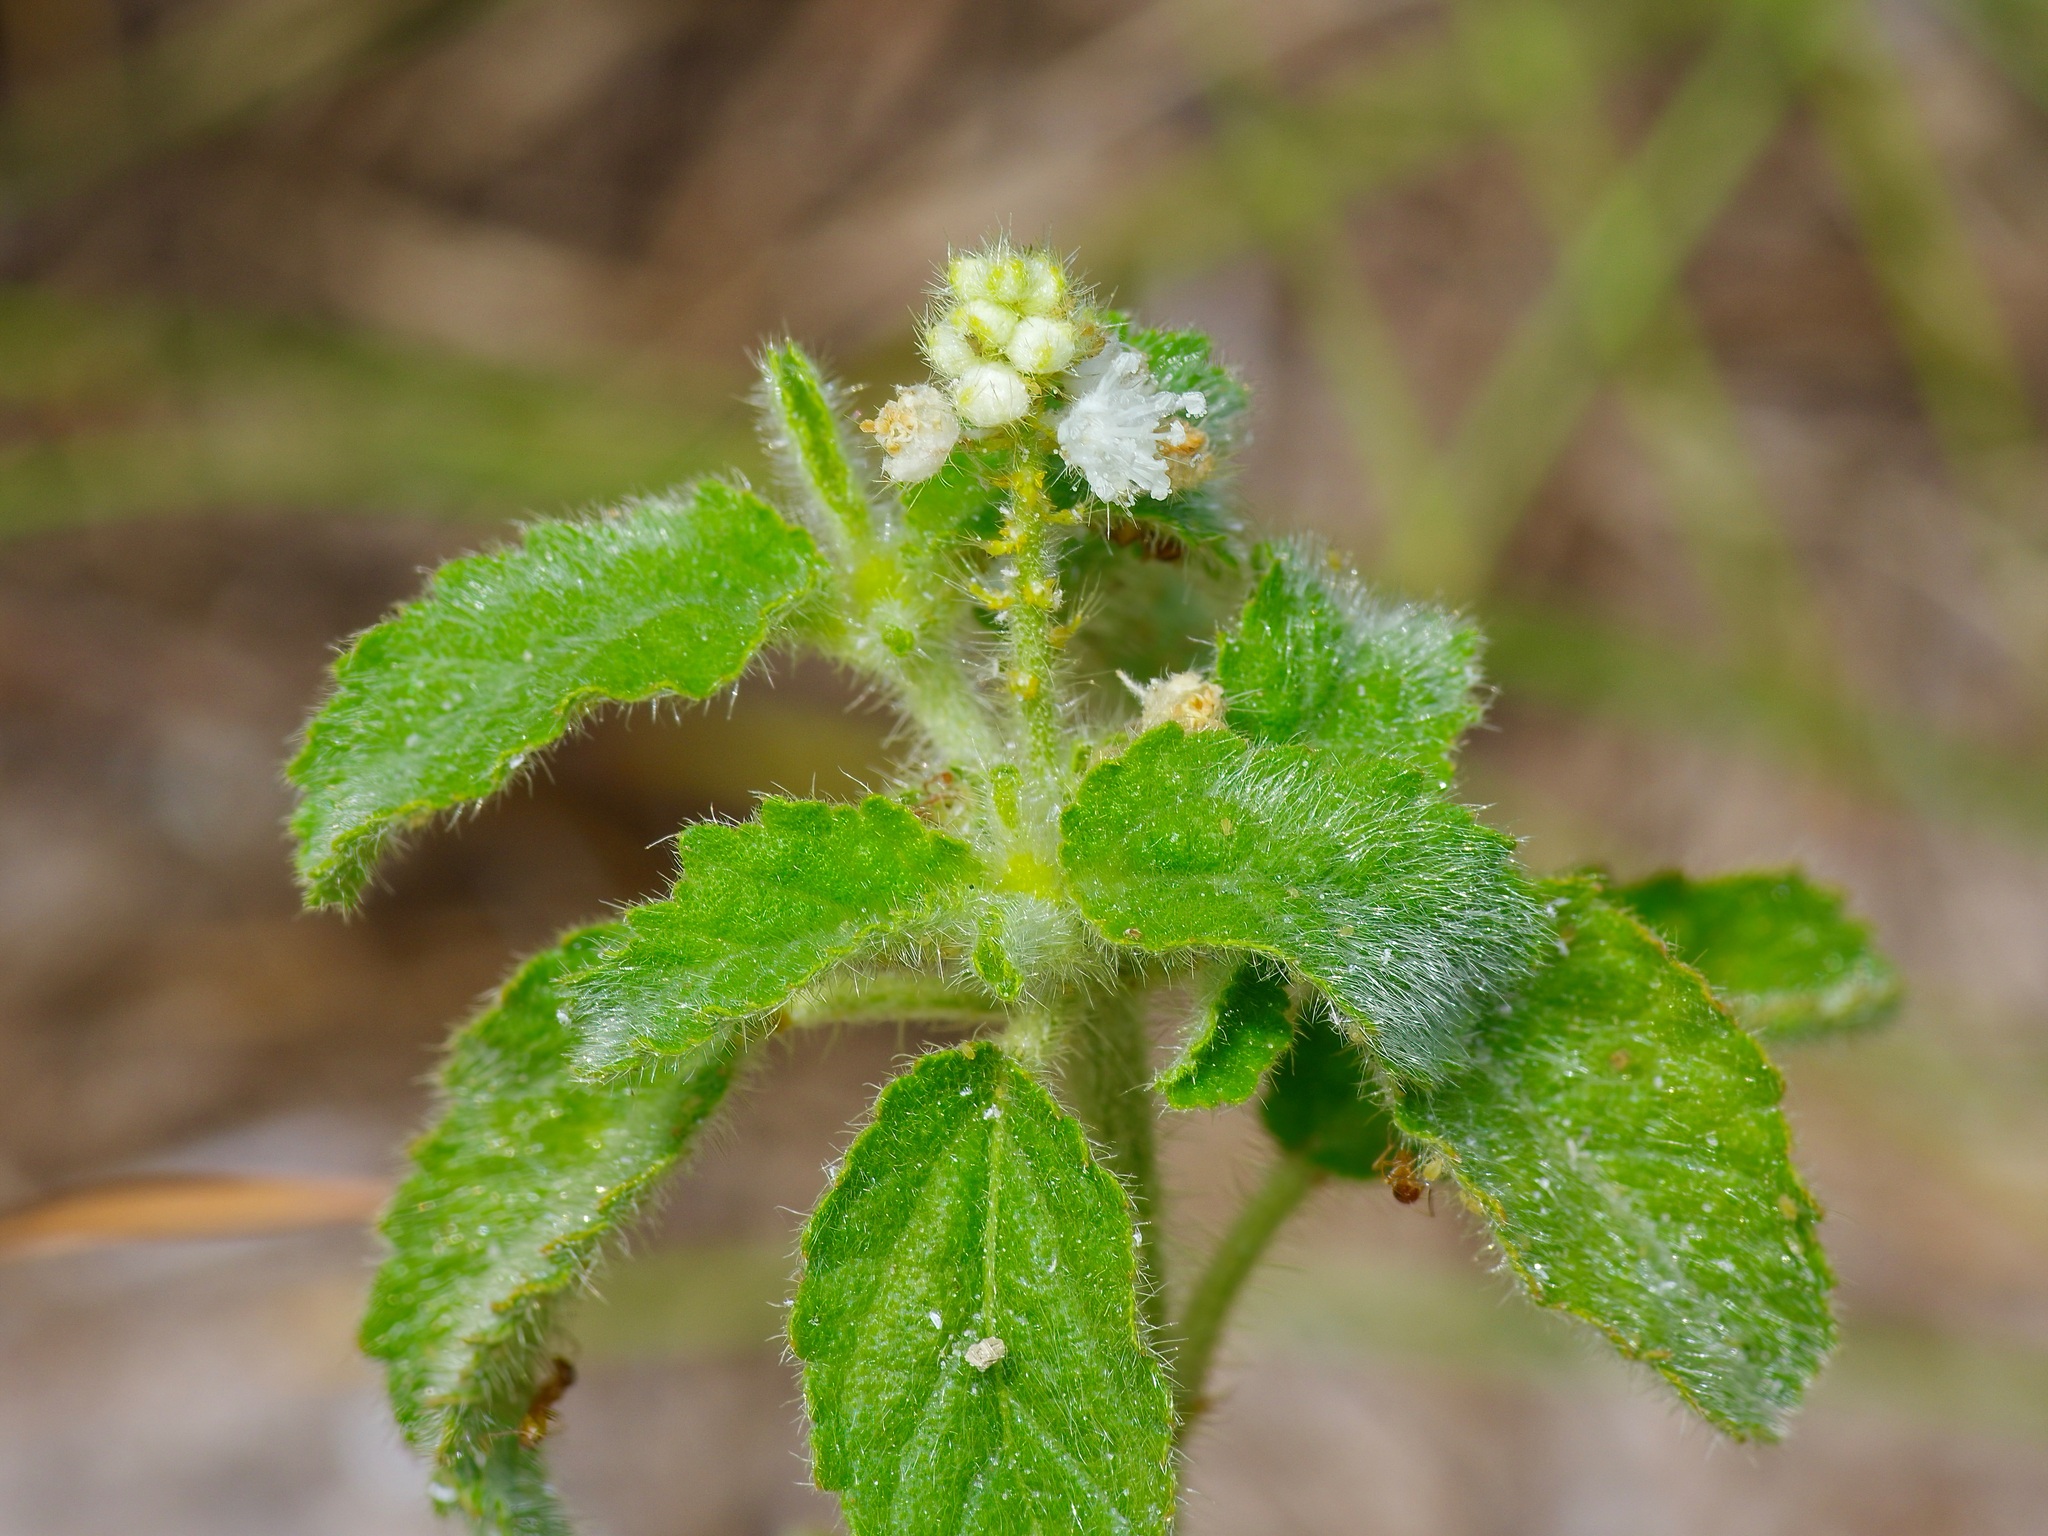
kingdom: Plantae
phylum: Tracheophyta
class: Magnoliopsida
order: Malpighiales
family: Euphorbiaceae
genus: Croton
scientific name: Croton glandulosus
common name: Tropic croton
